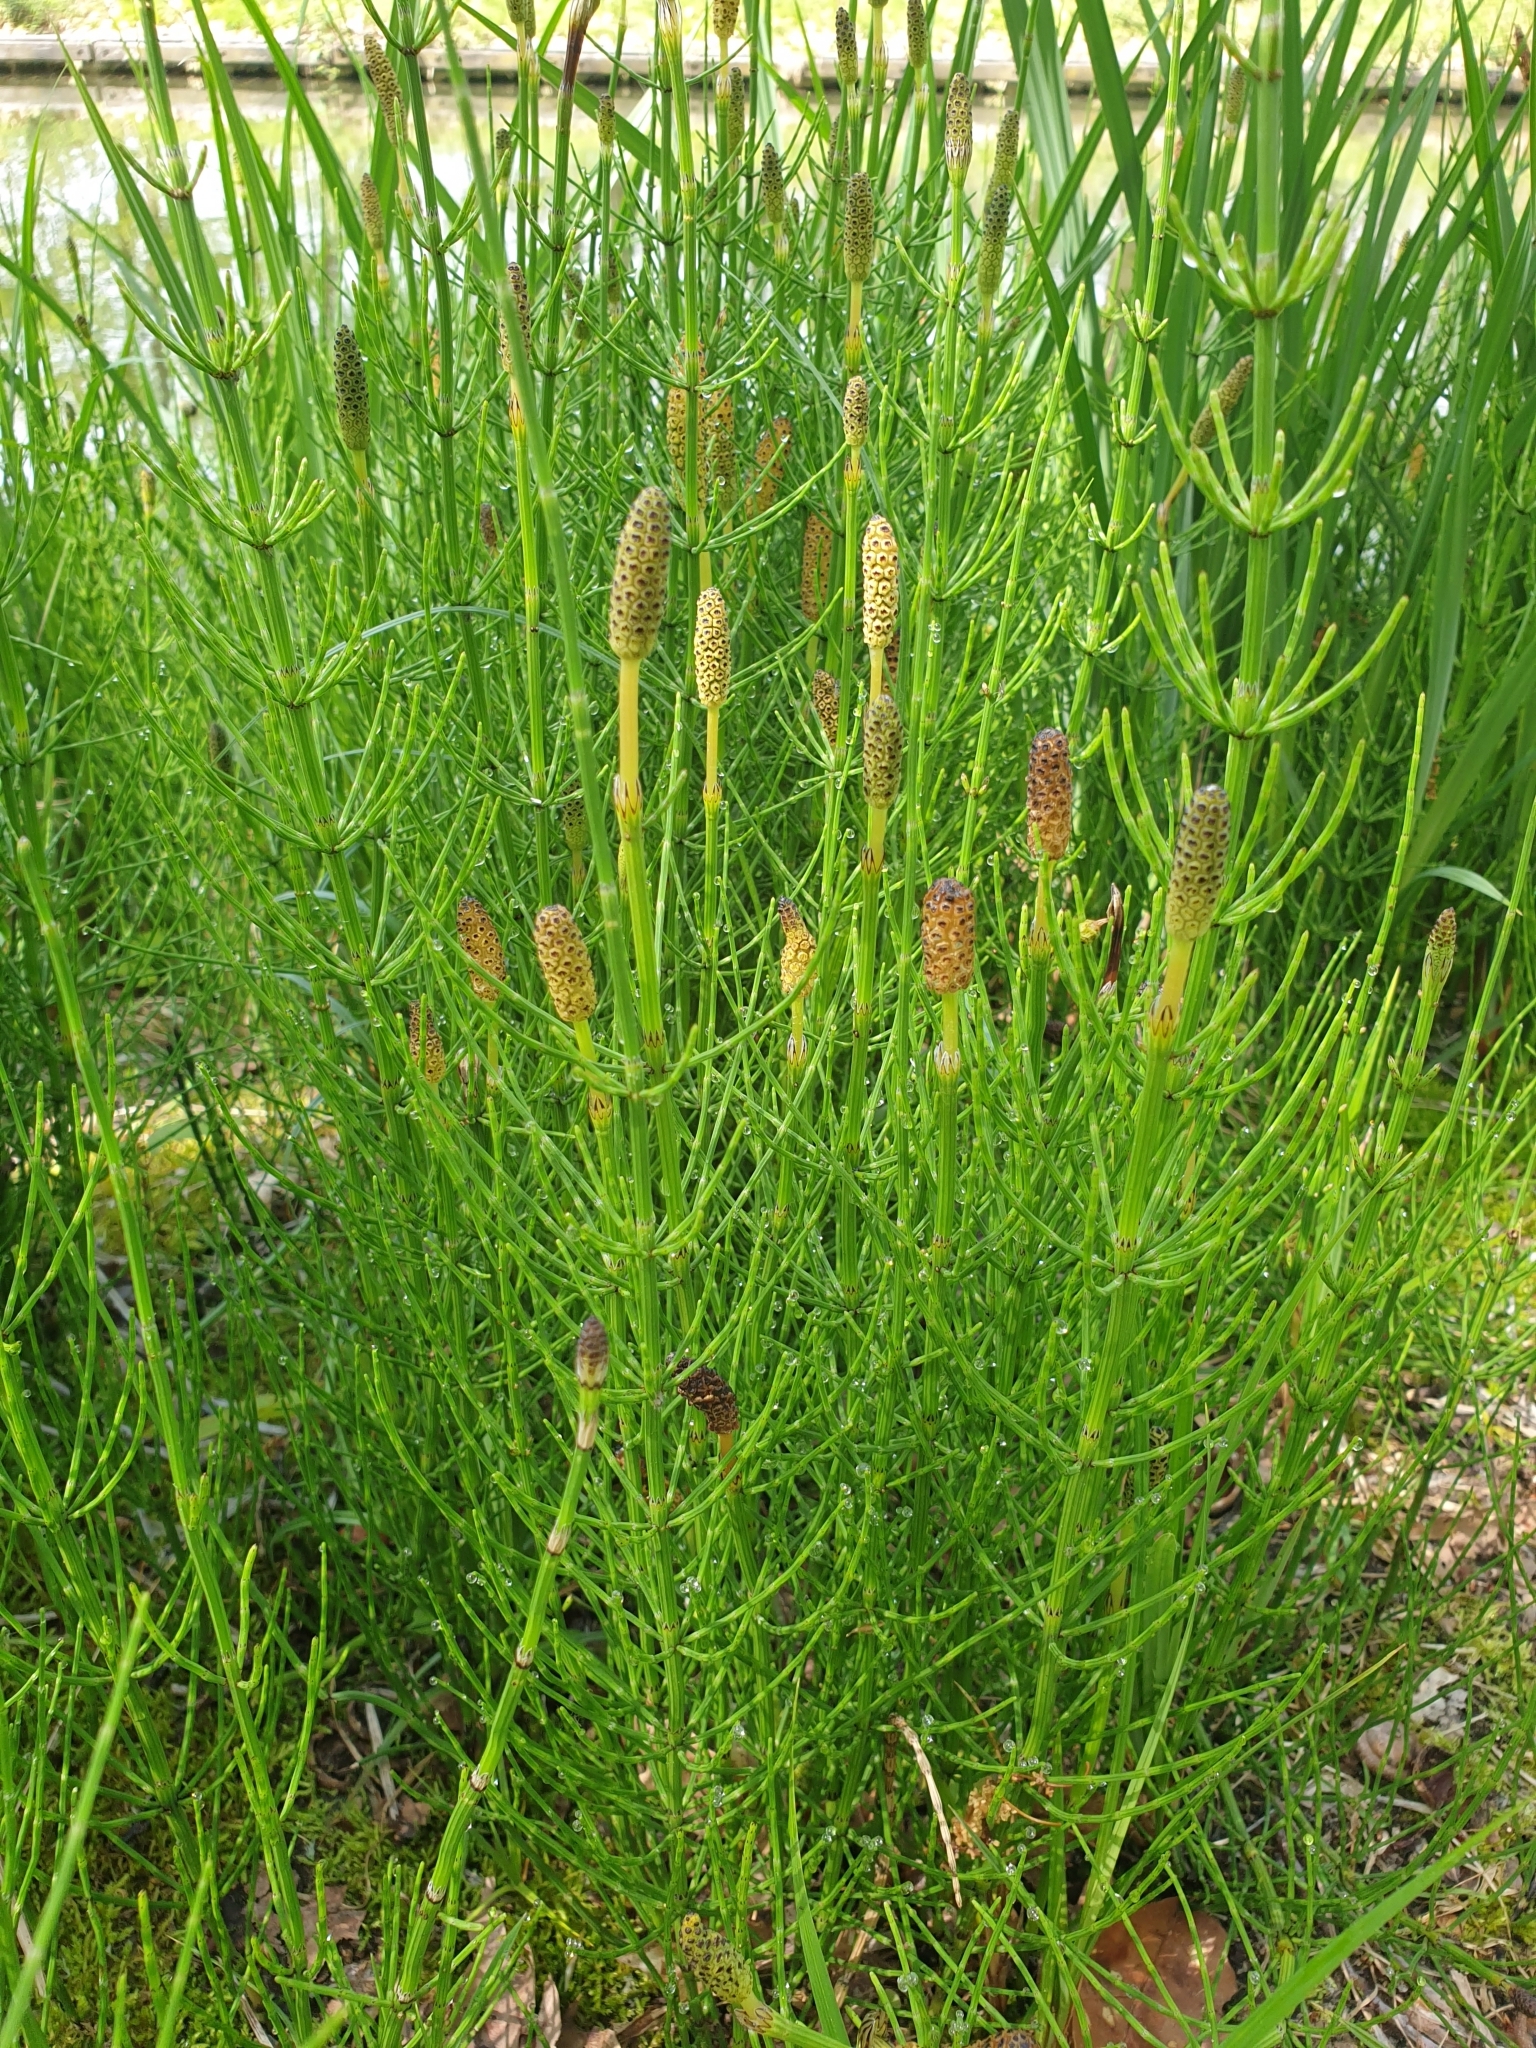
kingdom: Plantae
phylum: Tracheophyta
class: Polypodiopsida
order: Equisetales
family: Equisetaceae
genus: Equisetum
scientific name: Equisetum arvense
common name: Field horsetail
